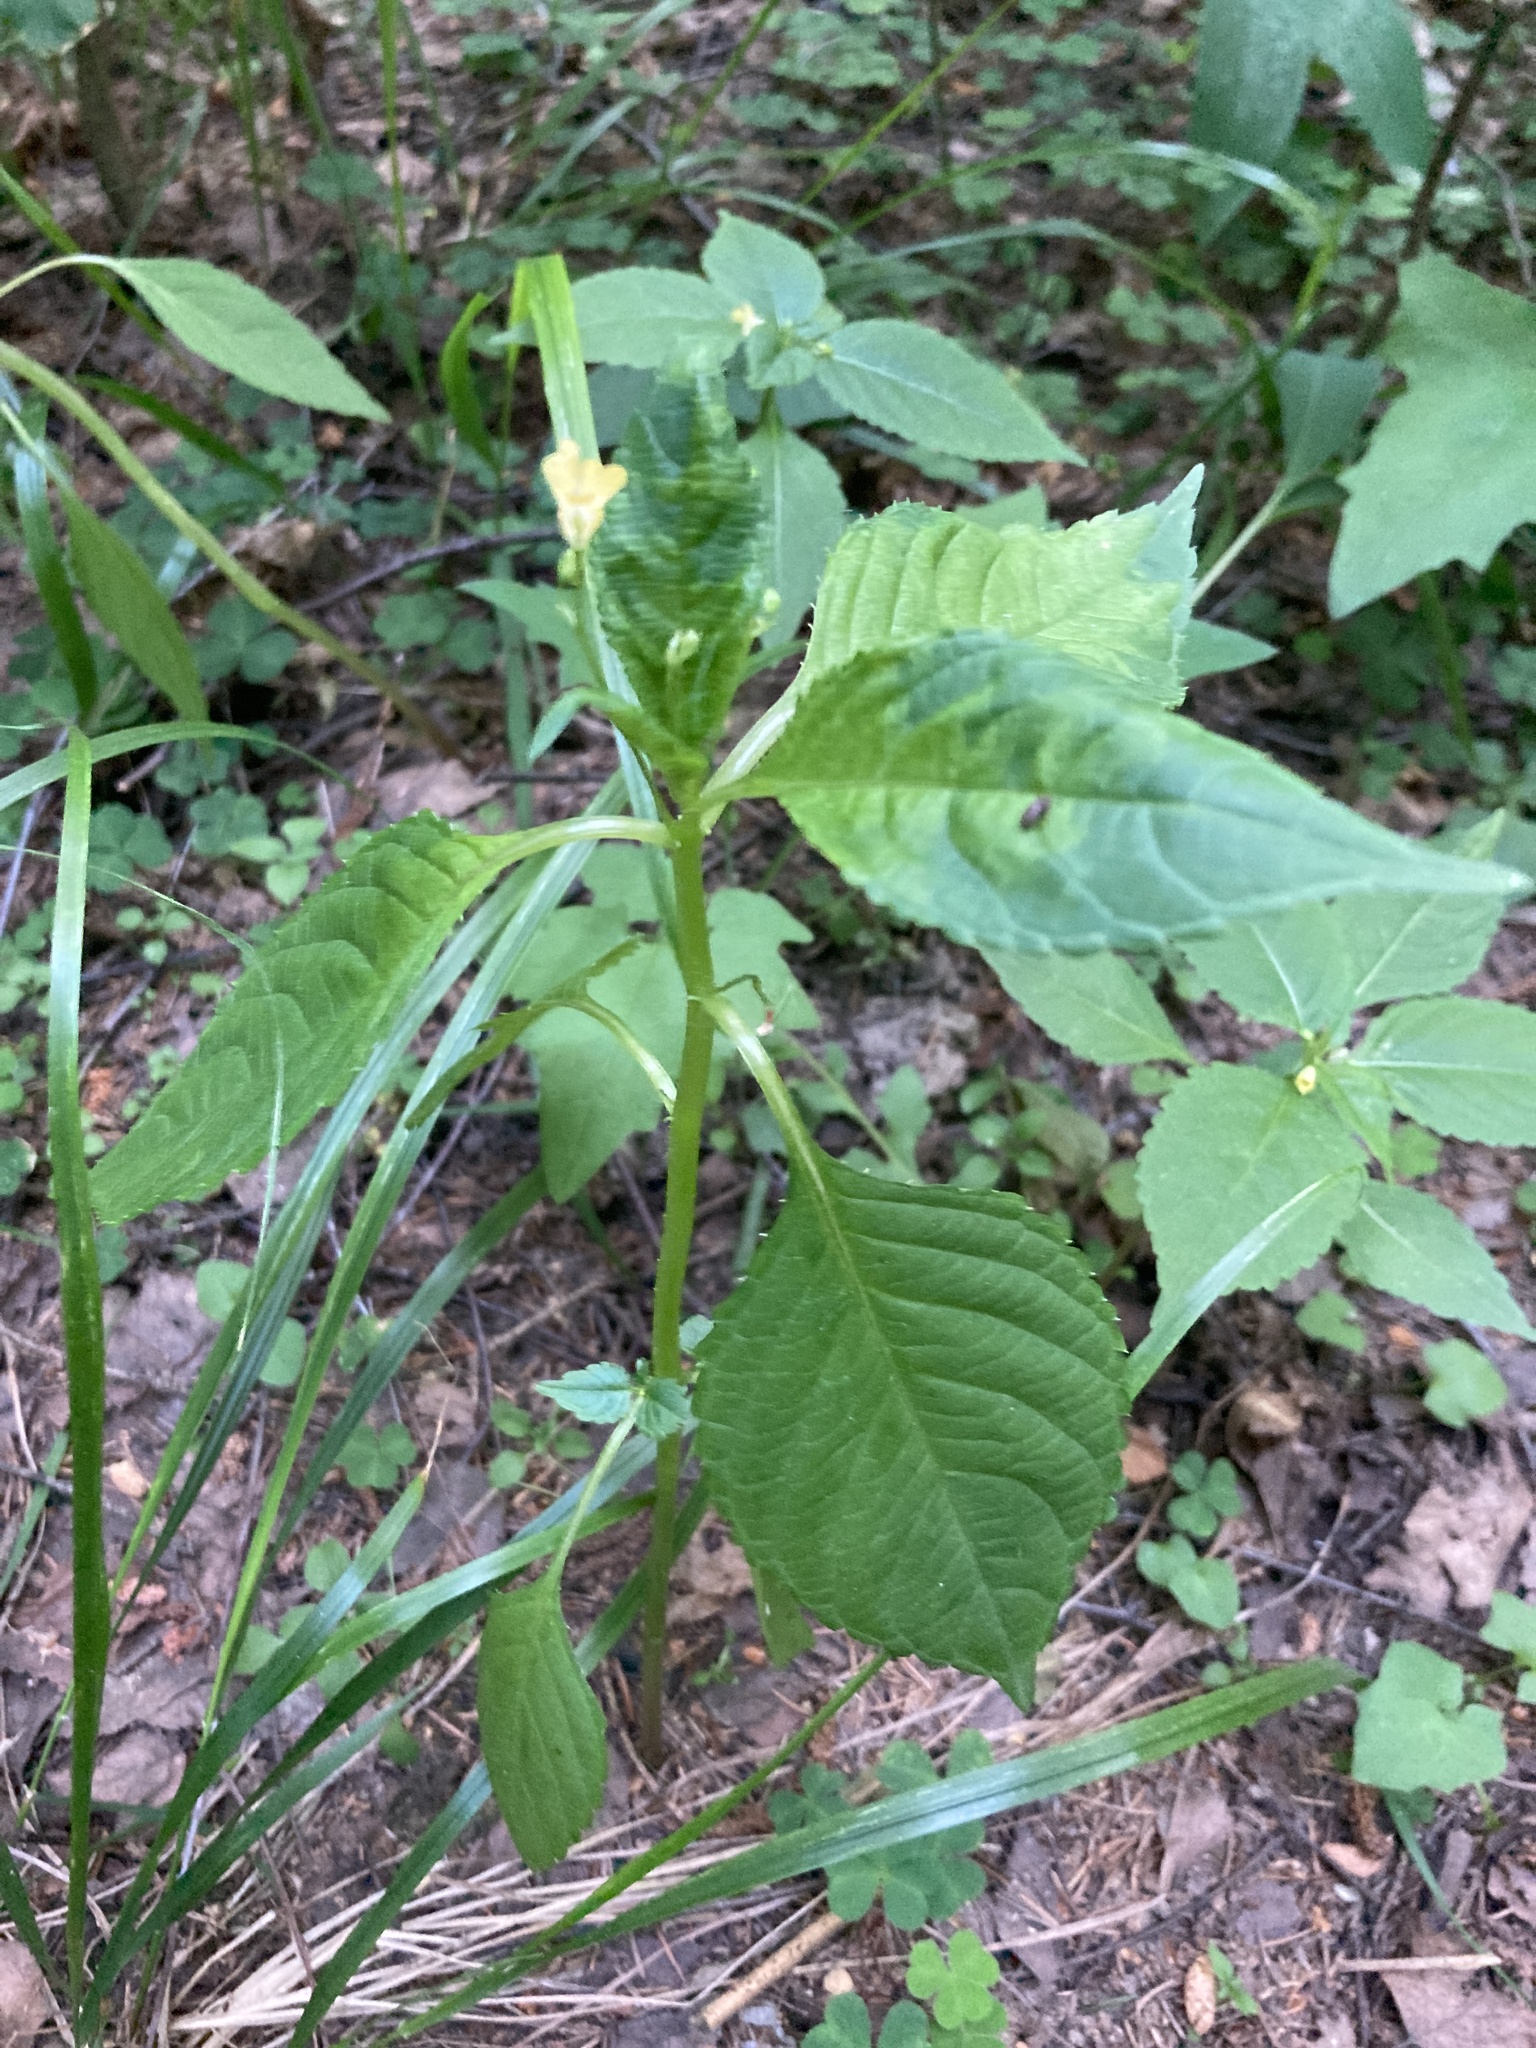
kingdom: Plantae
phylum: Tracheophyta
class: Magnoliopsida
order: Ericales
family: Balsaminaceae
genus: Impatiens
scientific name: Impatiens parviflora
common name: Small balsam
